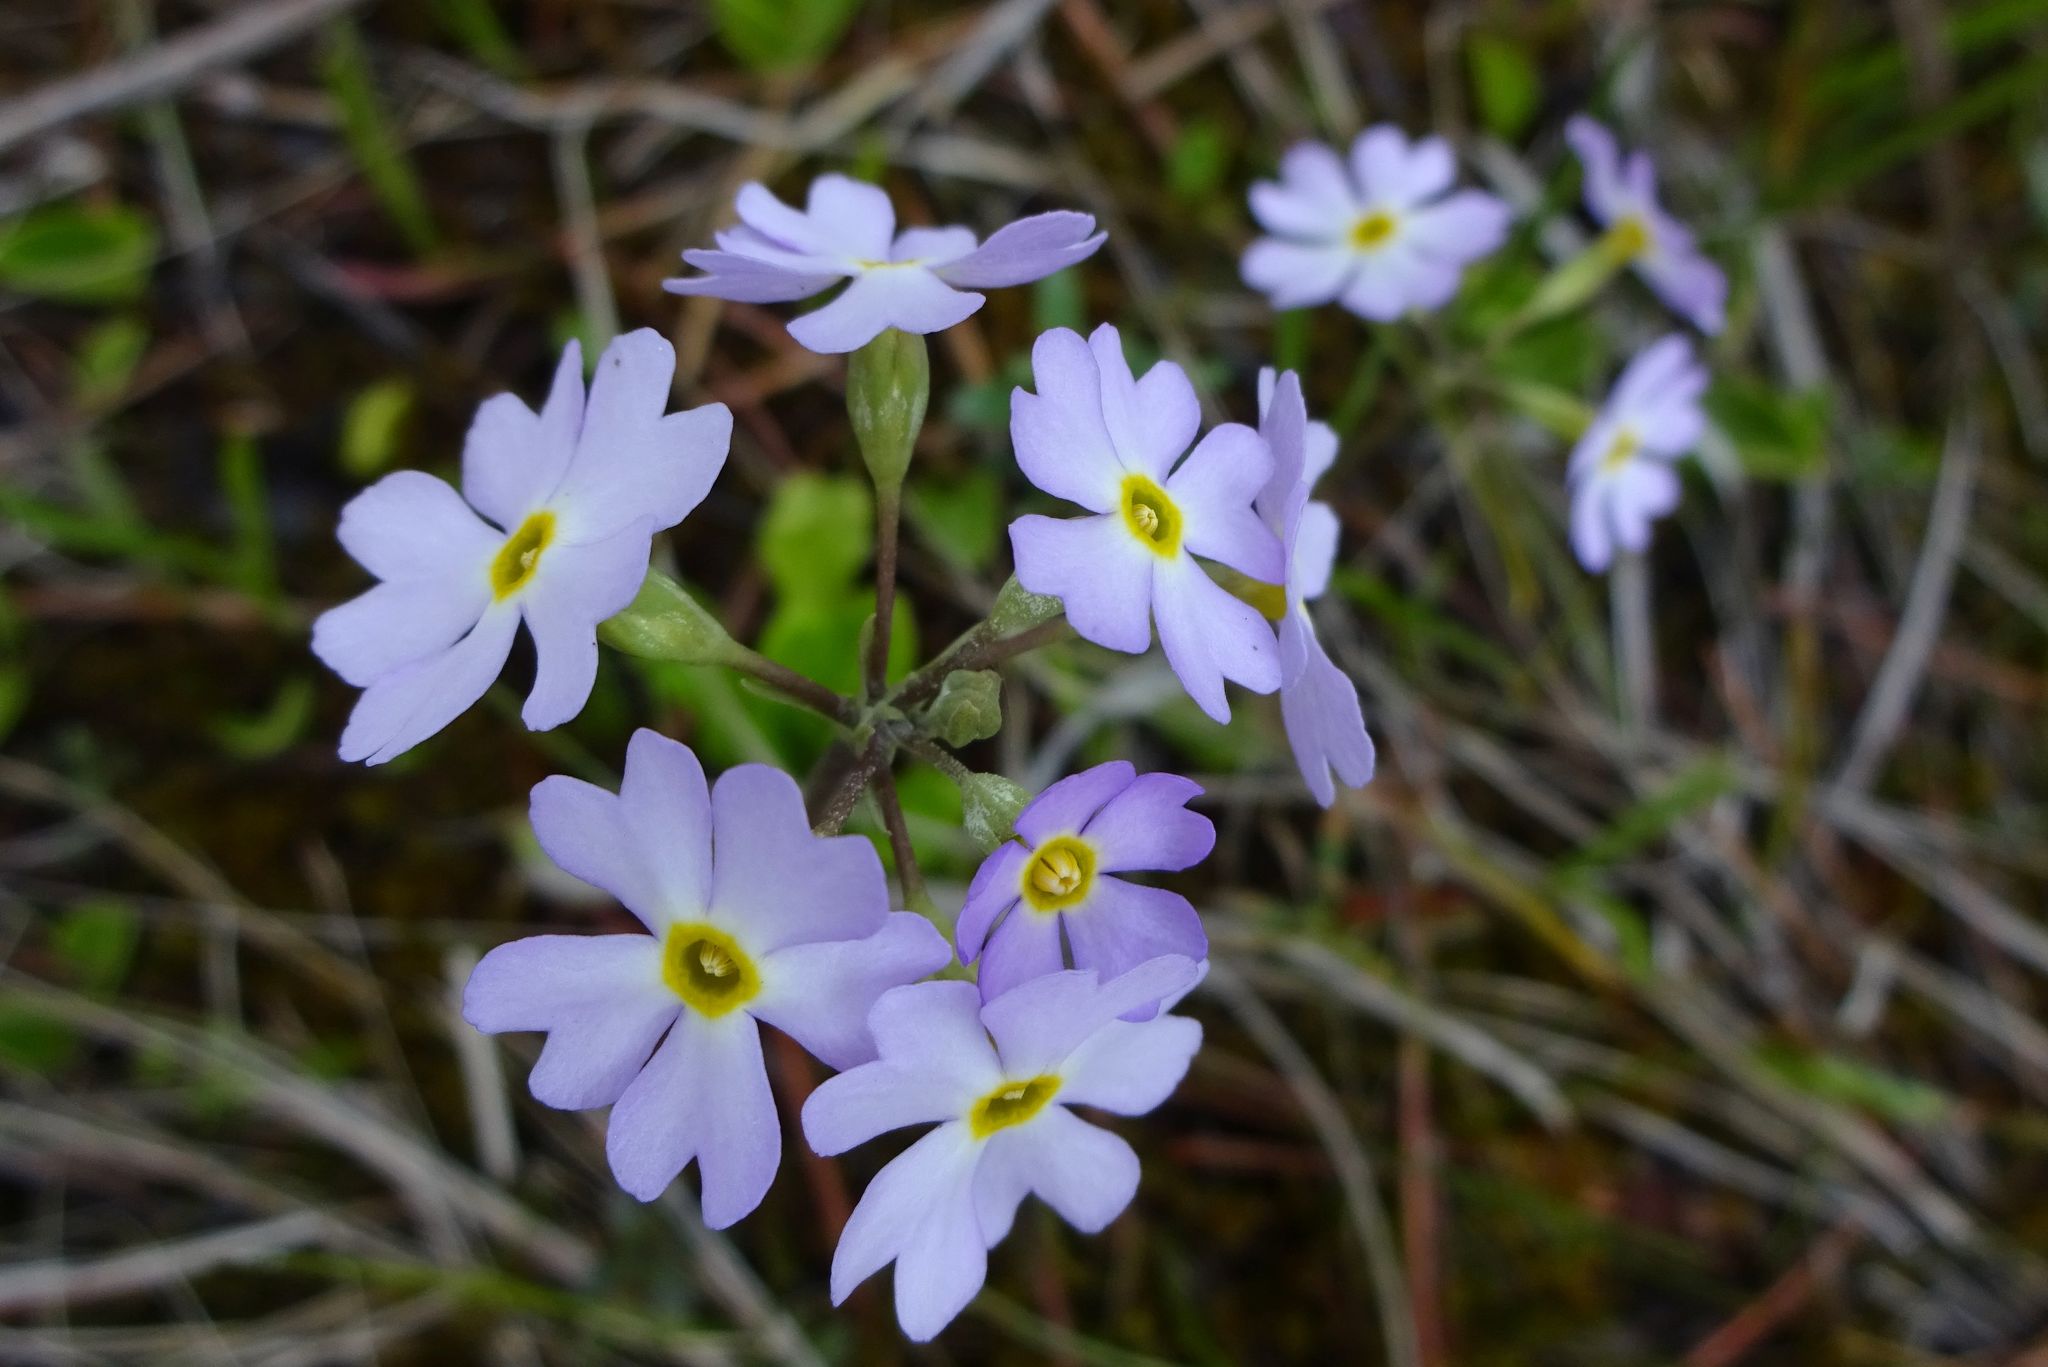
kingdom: Plantae
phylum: Tracheophyta
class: Magnoliopsida
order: Ericales
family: Primulaceae
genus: Primula
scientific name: Primula mistassinica
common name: Bird's-eye primrose
